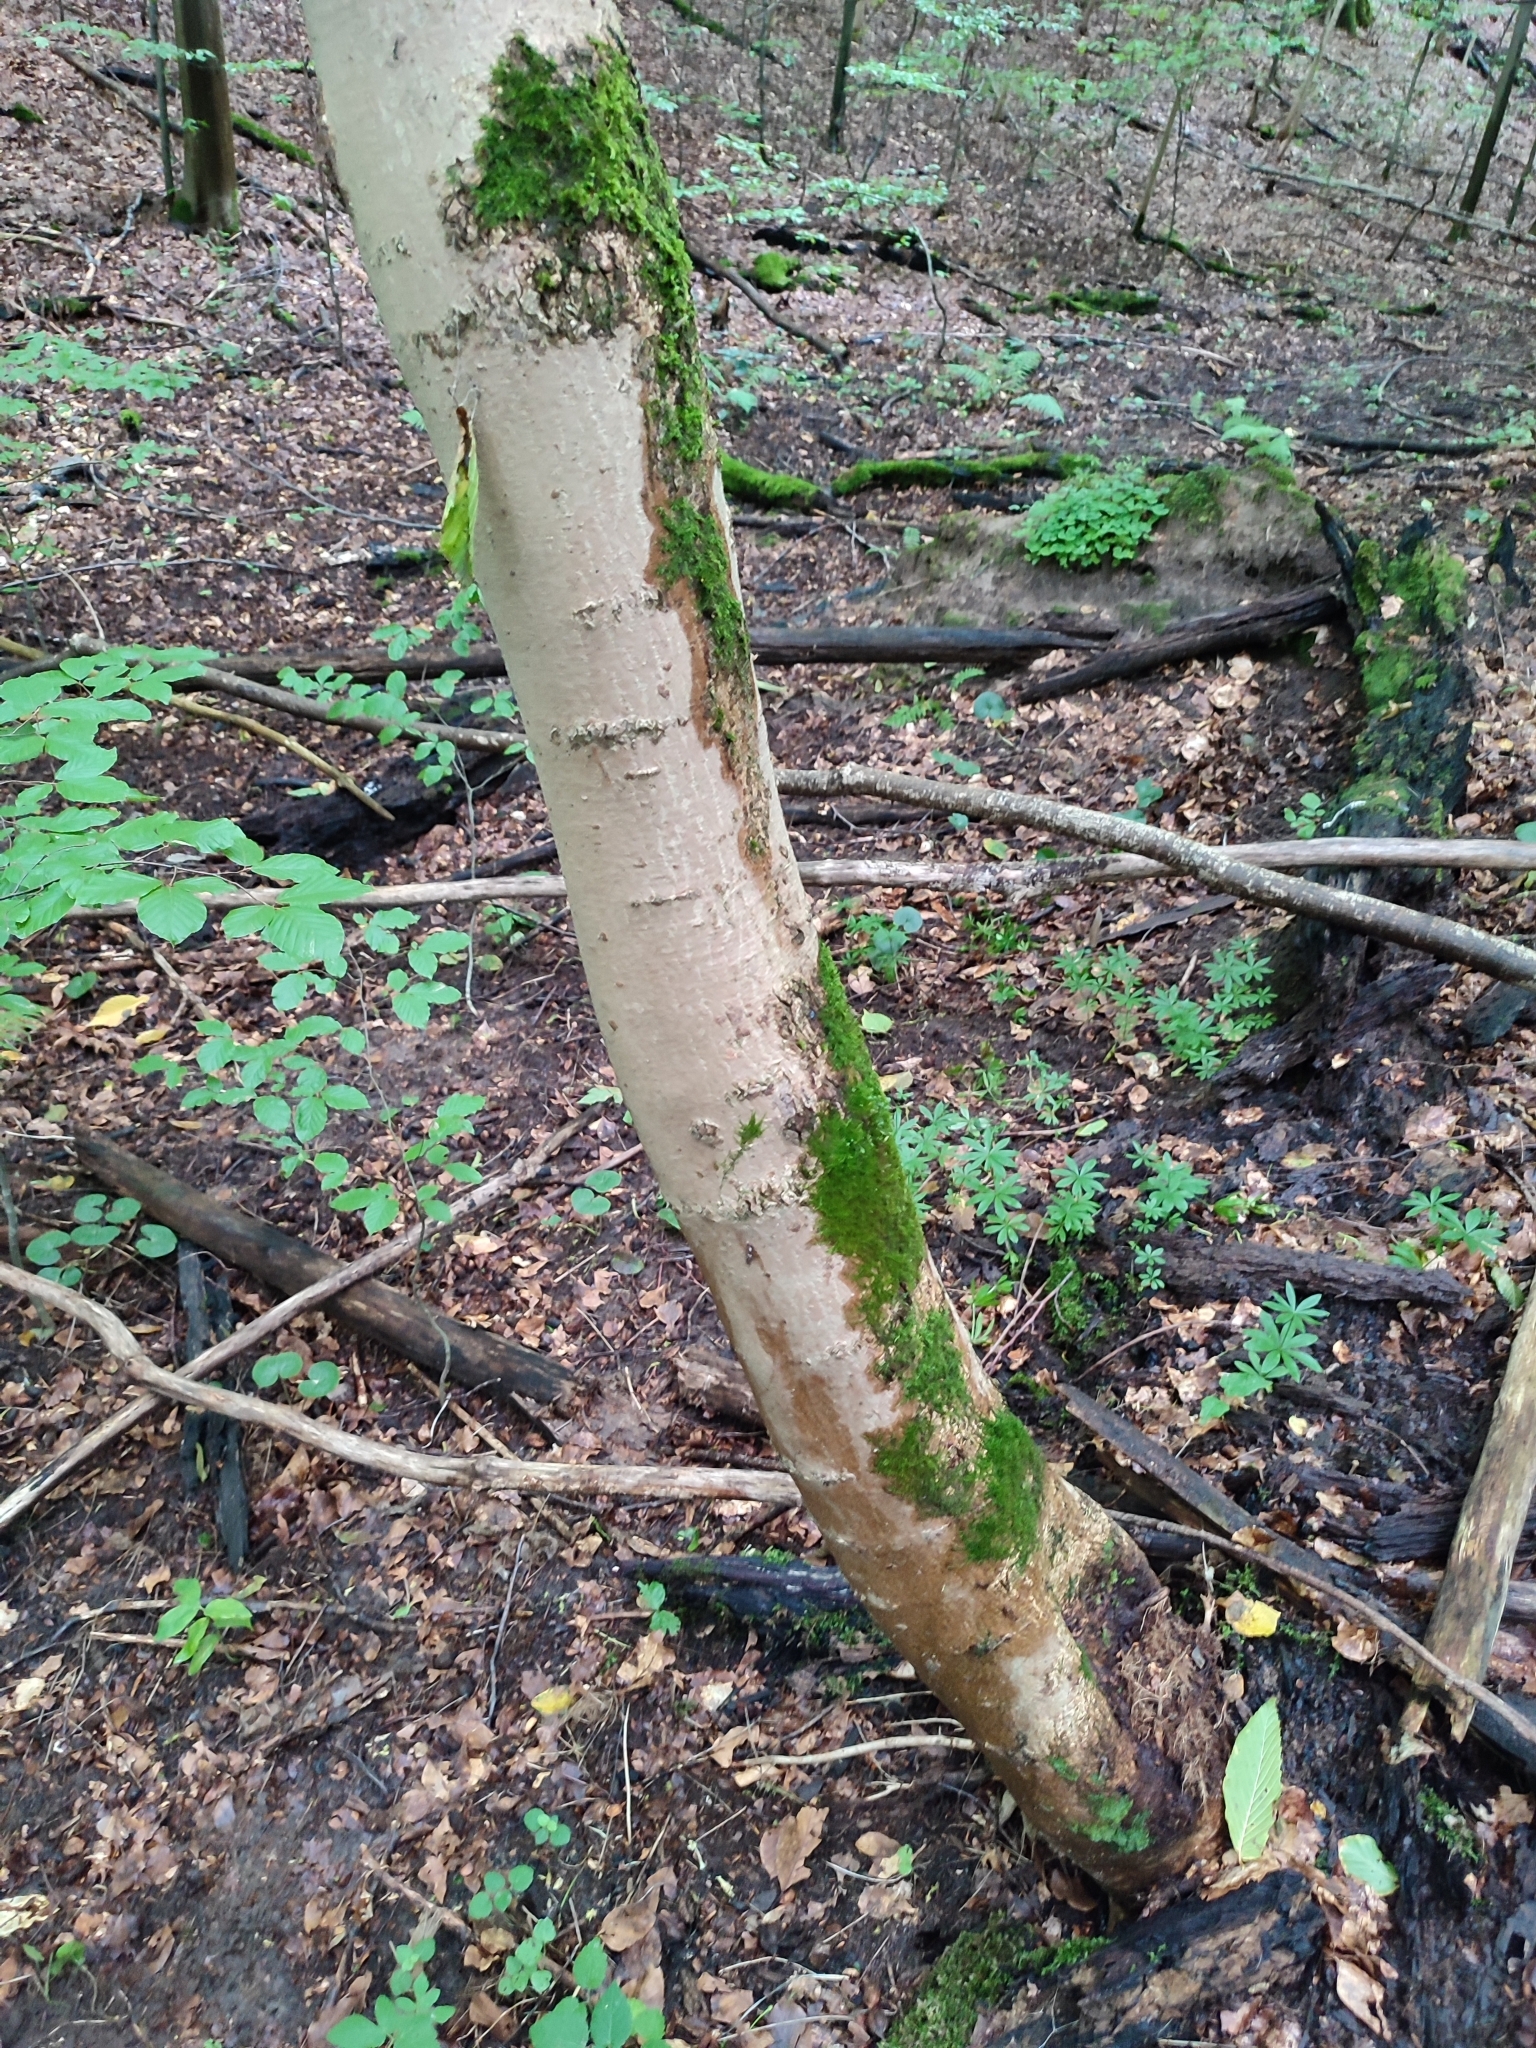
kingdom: Plantae
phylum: Tracheophyta
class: Magnoliopsida
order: Sapindales
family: Sapindaceae
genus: Acer
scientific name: Acer pseudoplatanus
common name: Sycamore
